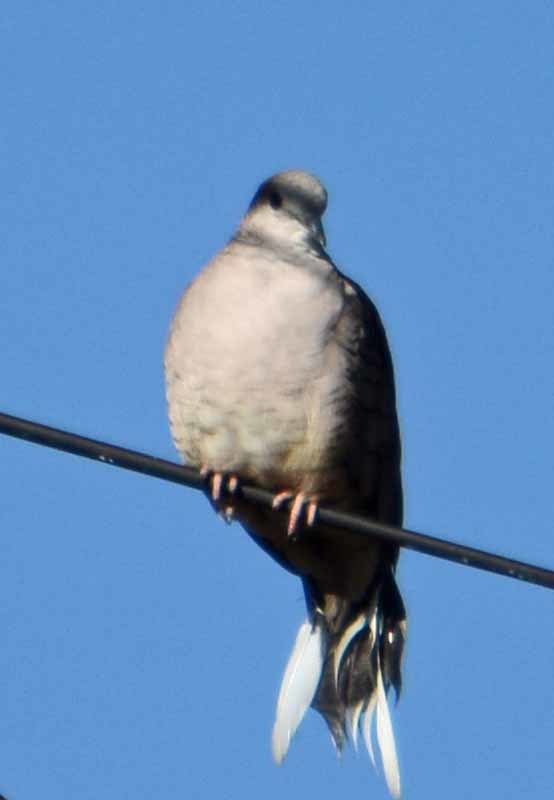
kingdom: Animalia
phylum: Chordata
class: Aves
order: Columbiformes
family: Columbidae
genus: Columbina
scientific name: Columbina inca
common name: Inca dove
